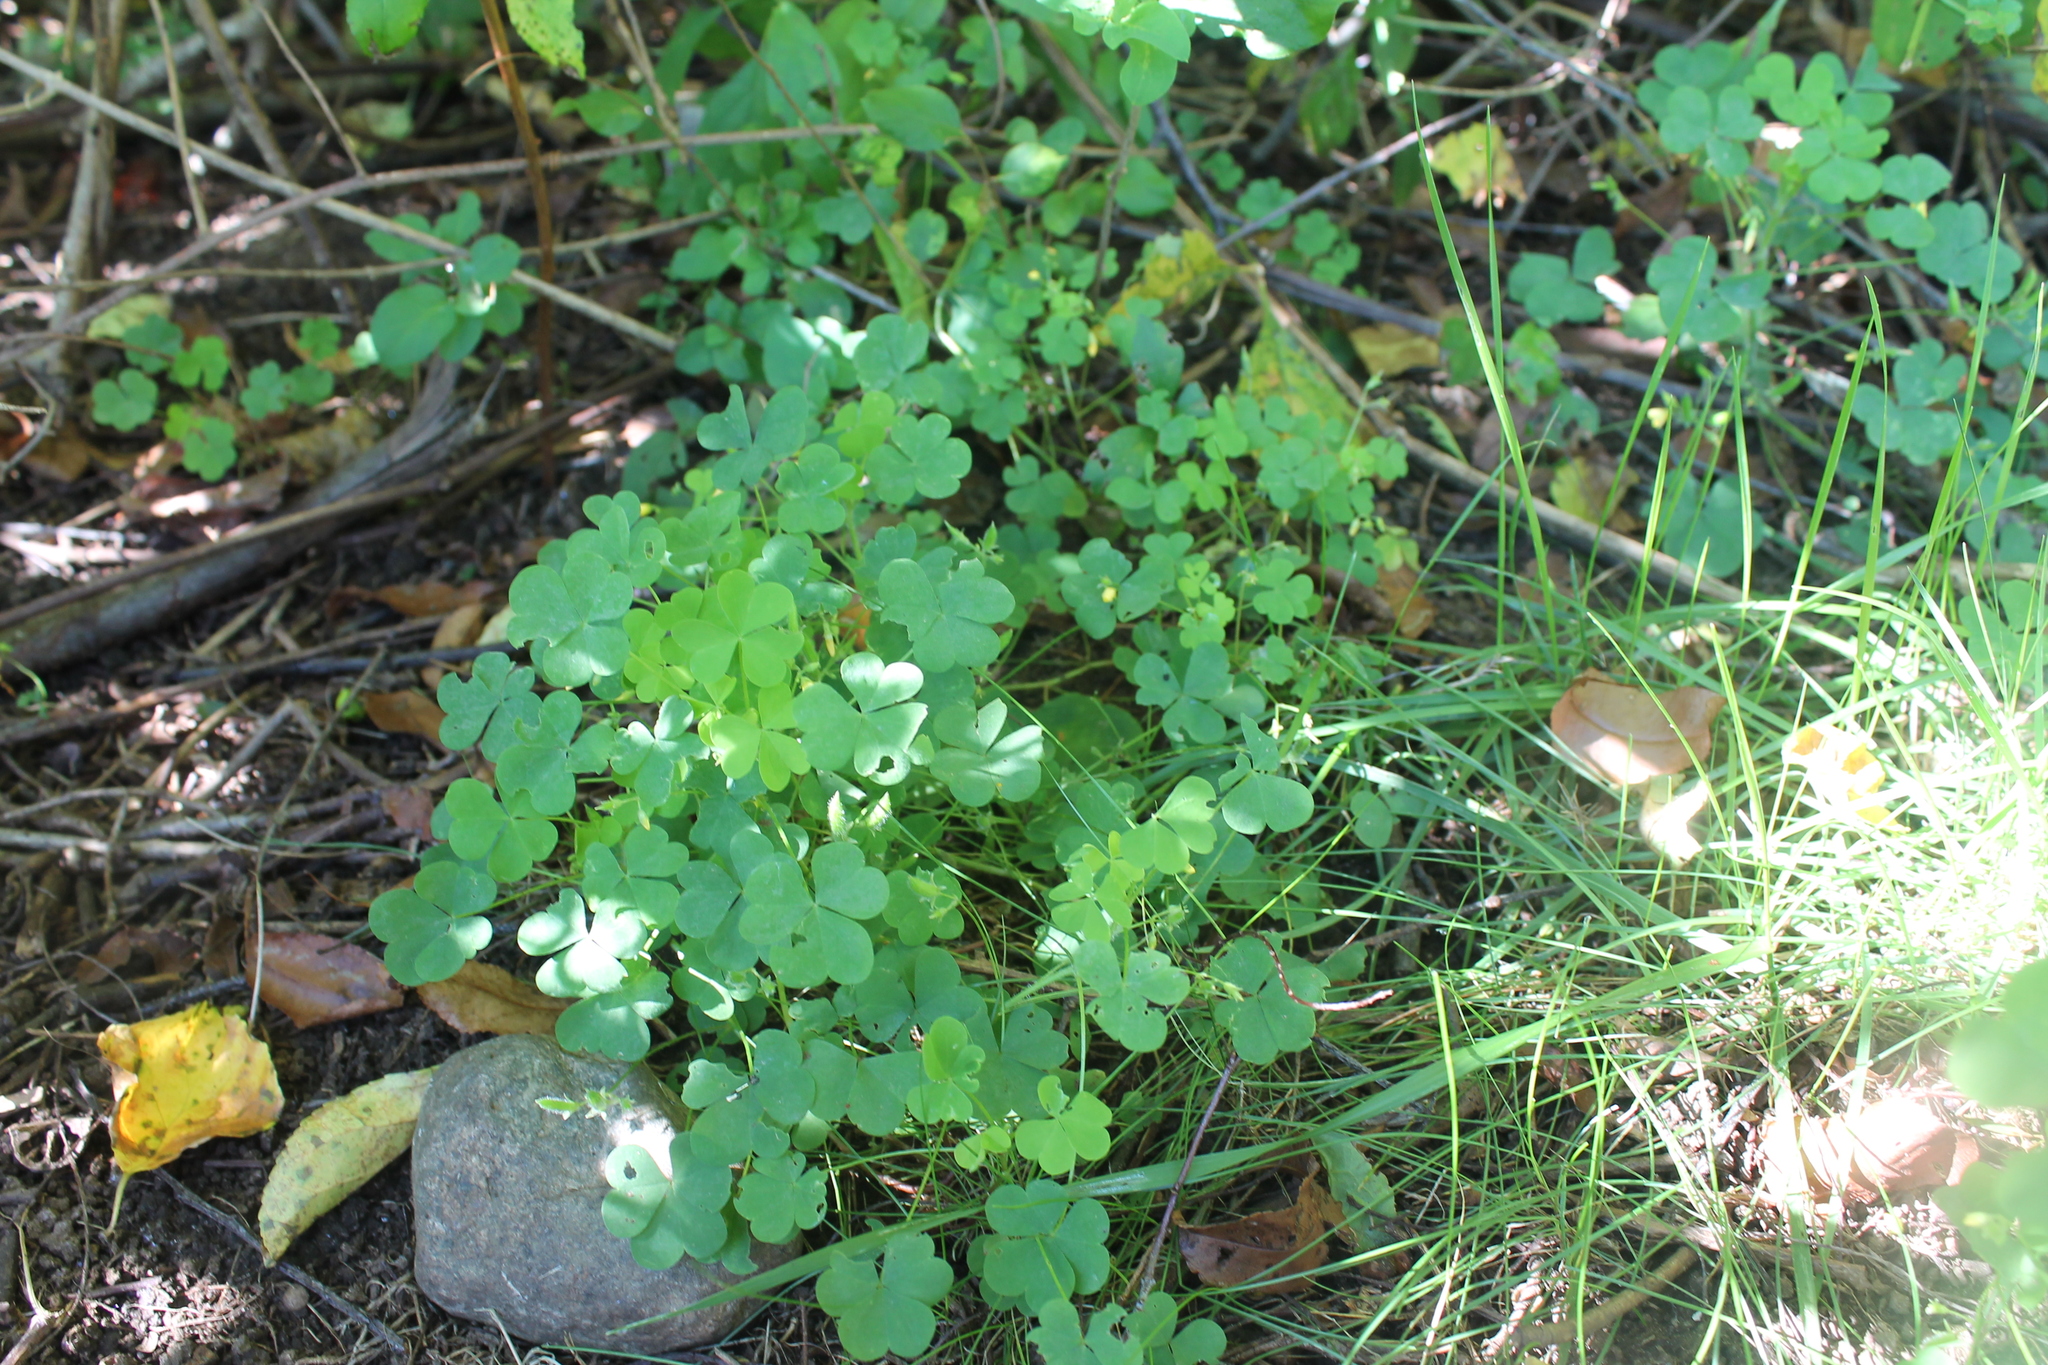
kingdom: Plantae
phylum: Tracheophyta
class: Magnoliopsida
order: Oxalidales
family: Oxalidaceae
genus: Oxalis
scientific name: Oxalis stricta
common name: Upright yellow-sorrel
